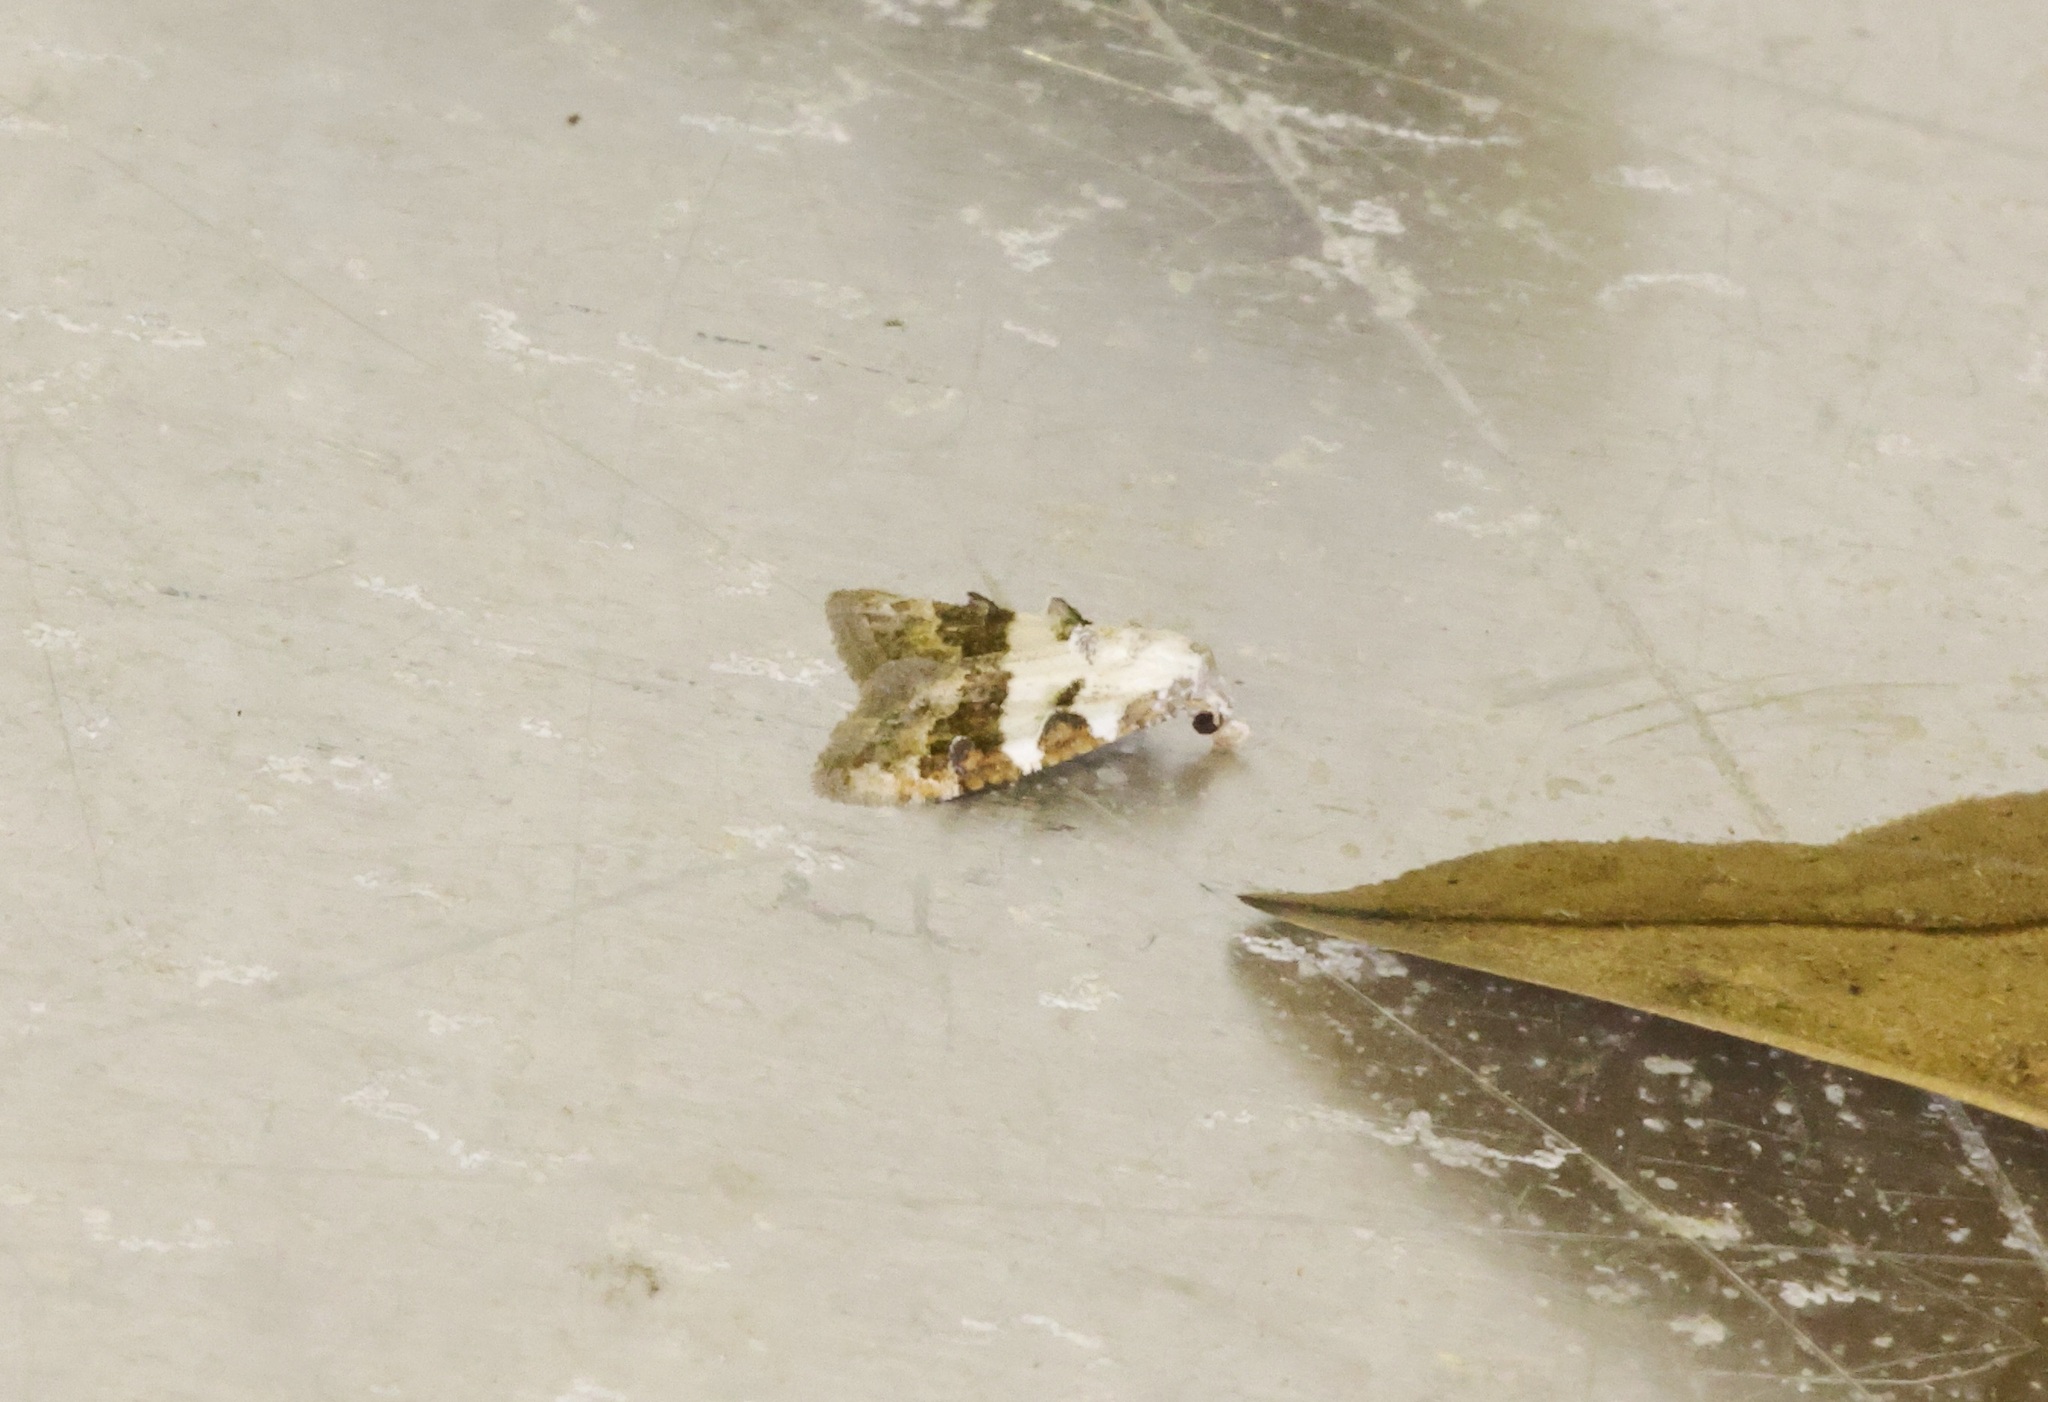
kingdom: Animalia
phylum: Arthropoda
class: Insecta
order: Lepidoptera
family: Nolidae
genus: Nola
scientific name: Nola lucidalis
